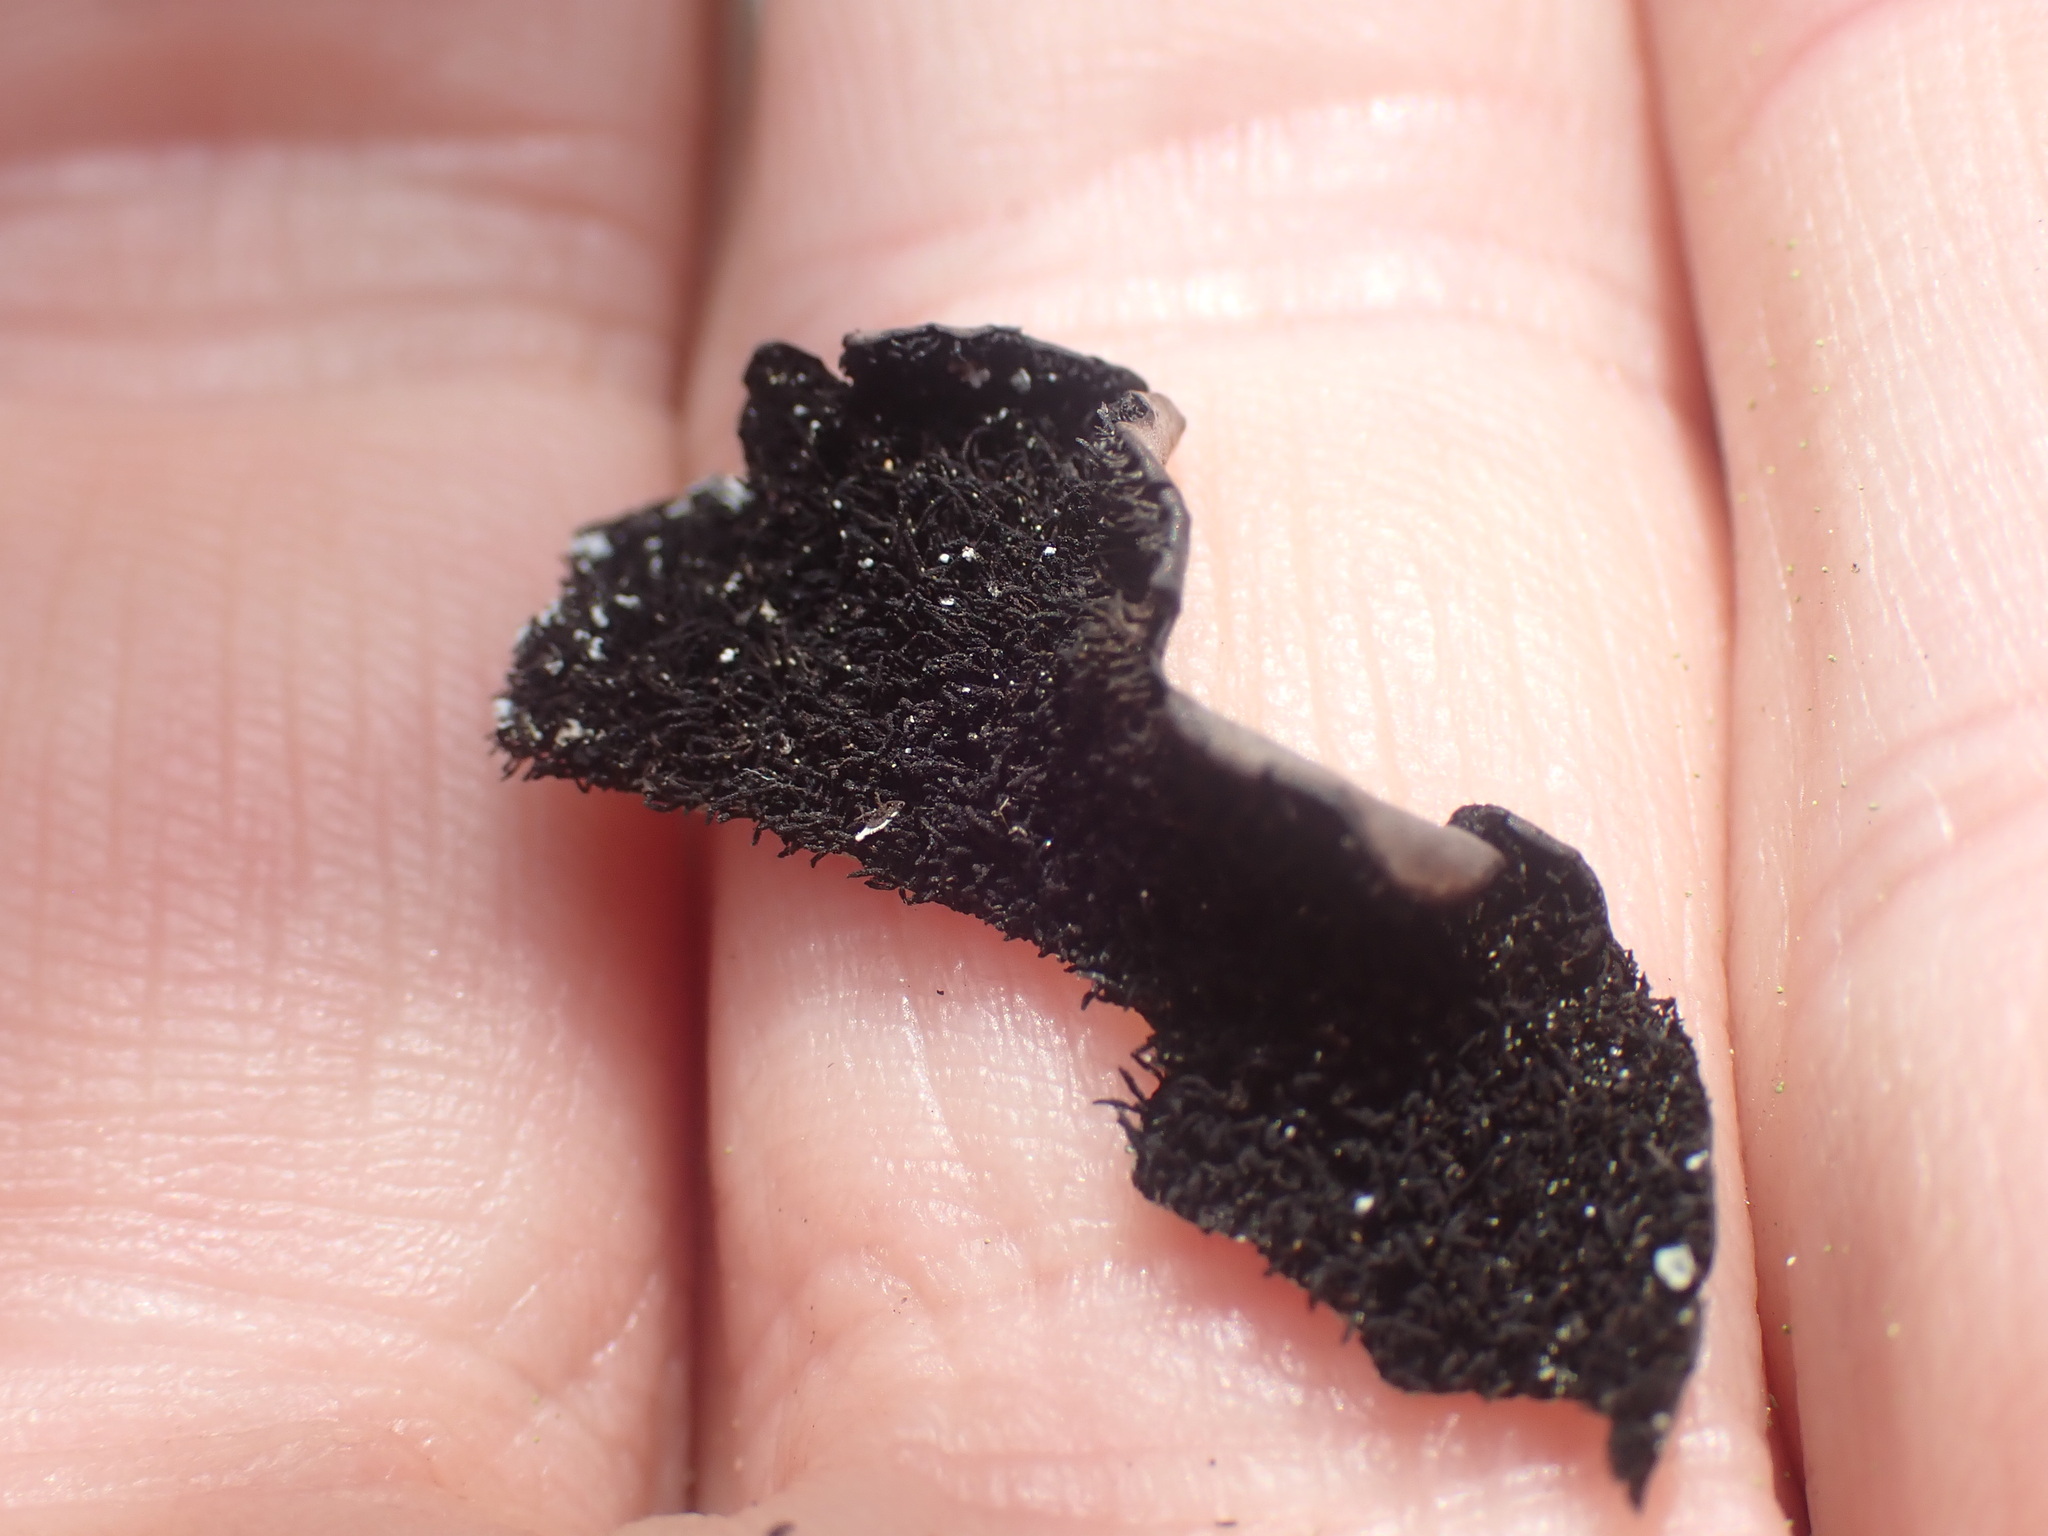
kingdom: Fungi
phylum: Ascomycota
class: Lecanoromycetes
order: Umbilicariales
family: Umbilicariaceae
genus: Umbilicaria
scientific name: Umbilicaria americana
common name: Frosted rock tripe
